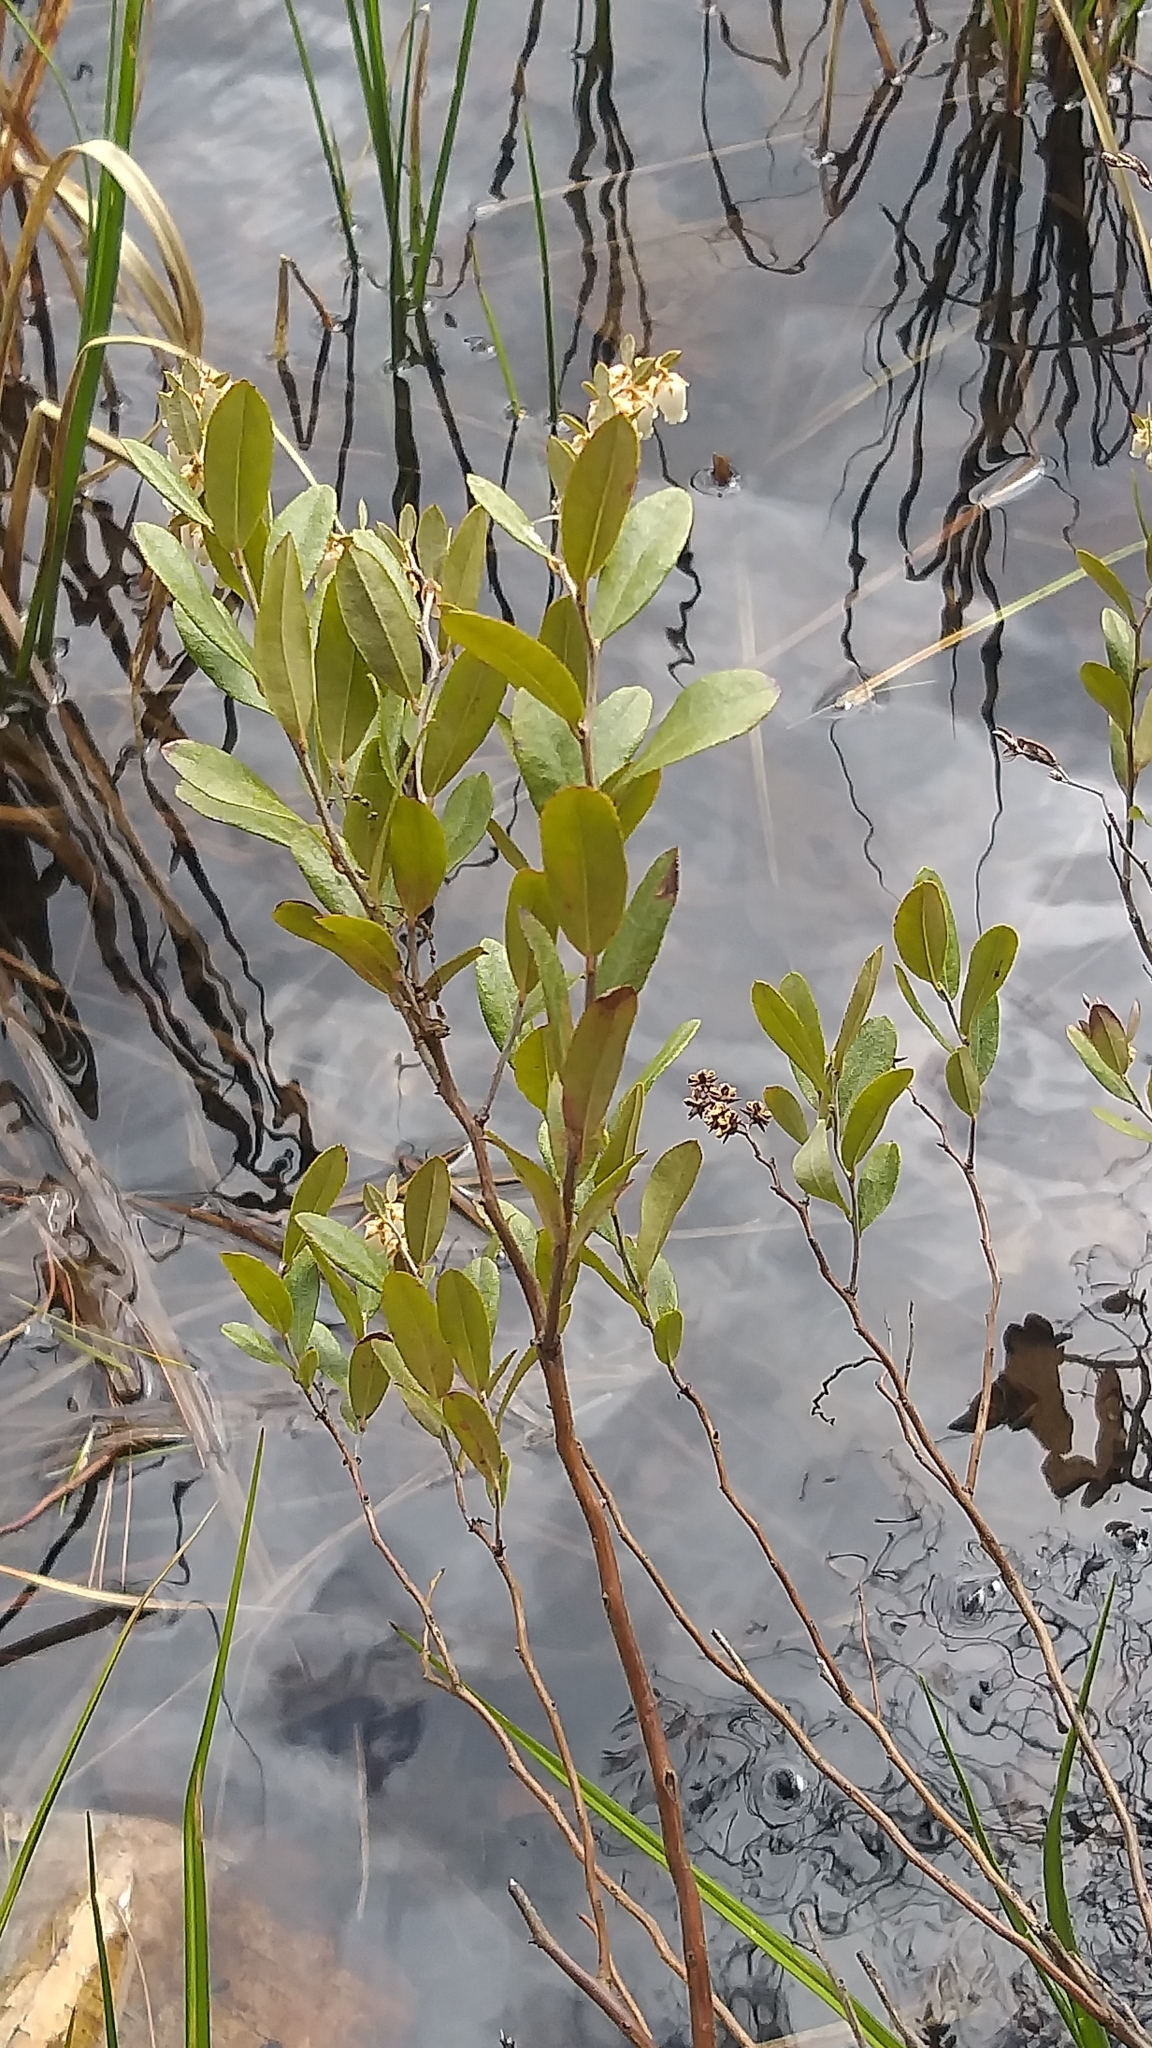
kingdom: Plantae
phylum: Tracheophyta
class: Magnoliopsida
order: Ericales
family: Ericaceae
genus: Chamaedaphne
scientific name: Chamaedaphne calyculata
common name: Leatherleaf
